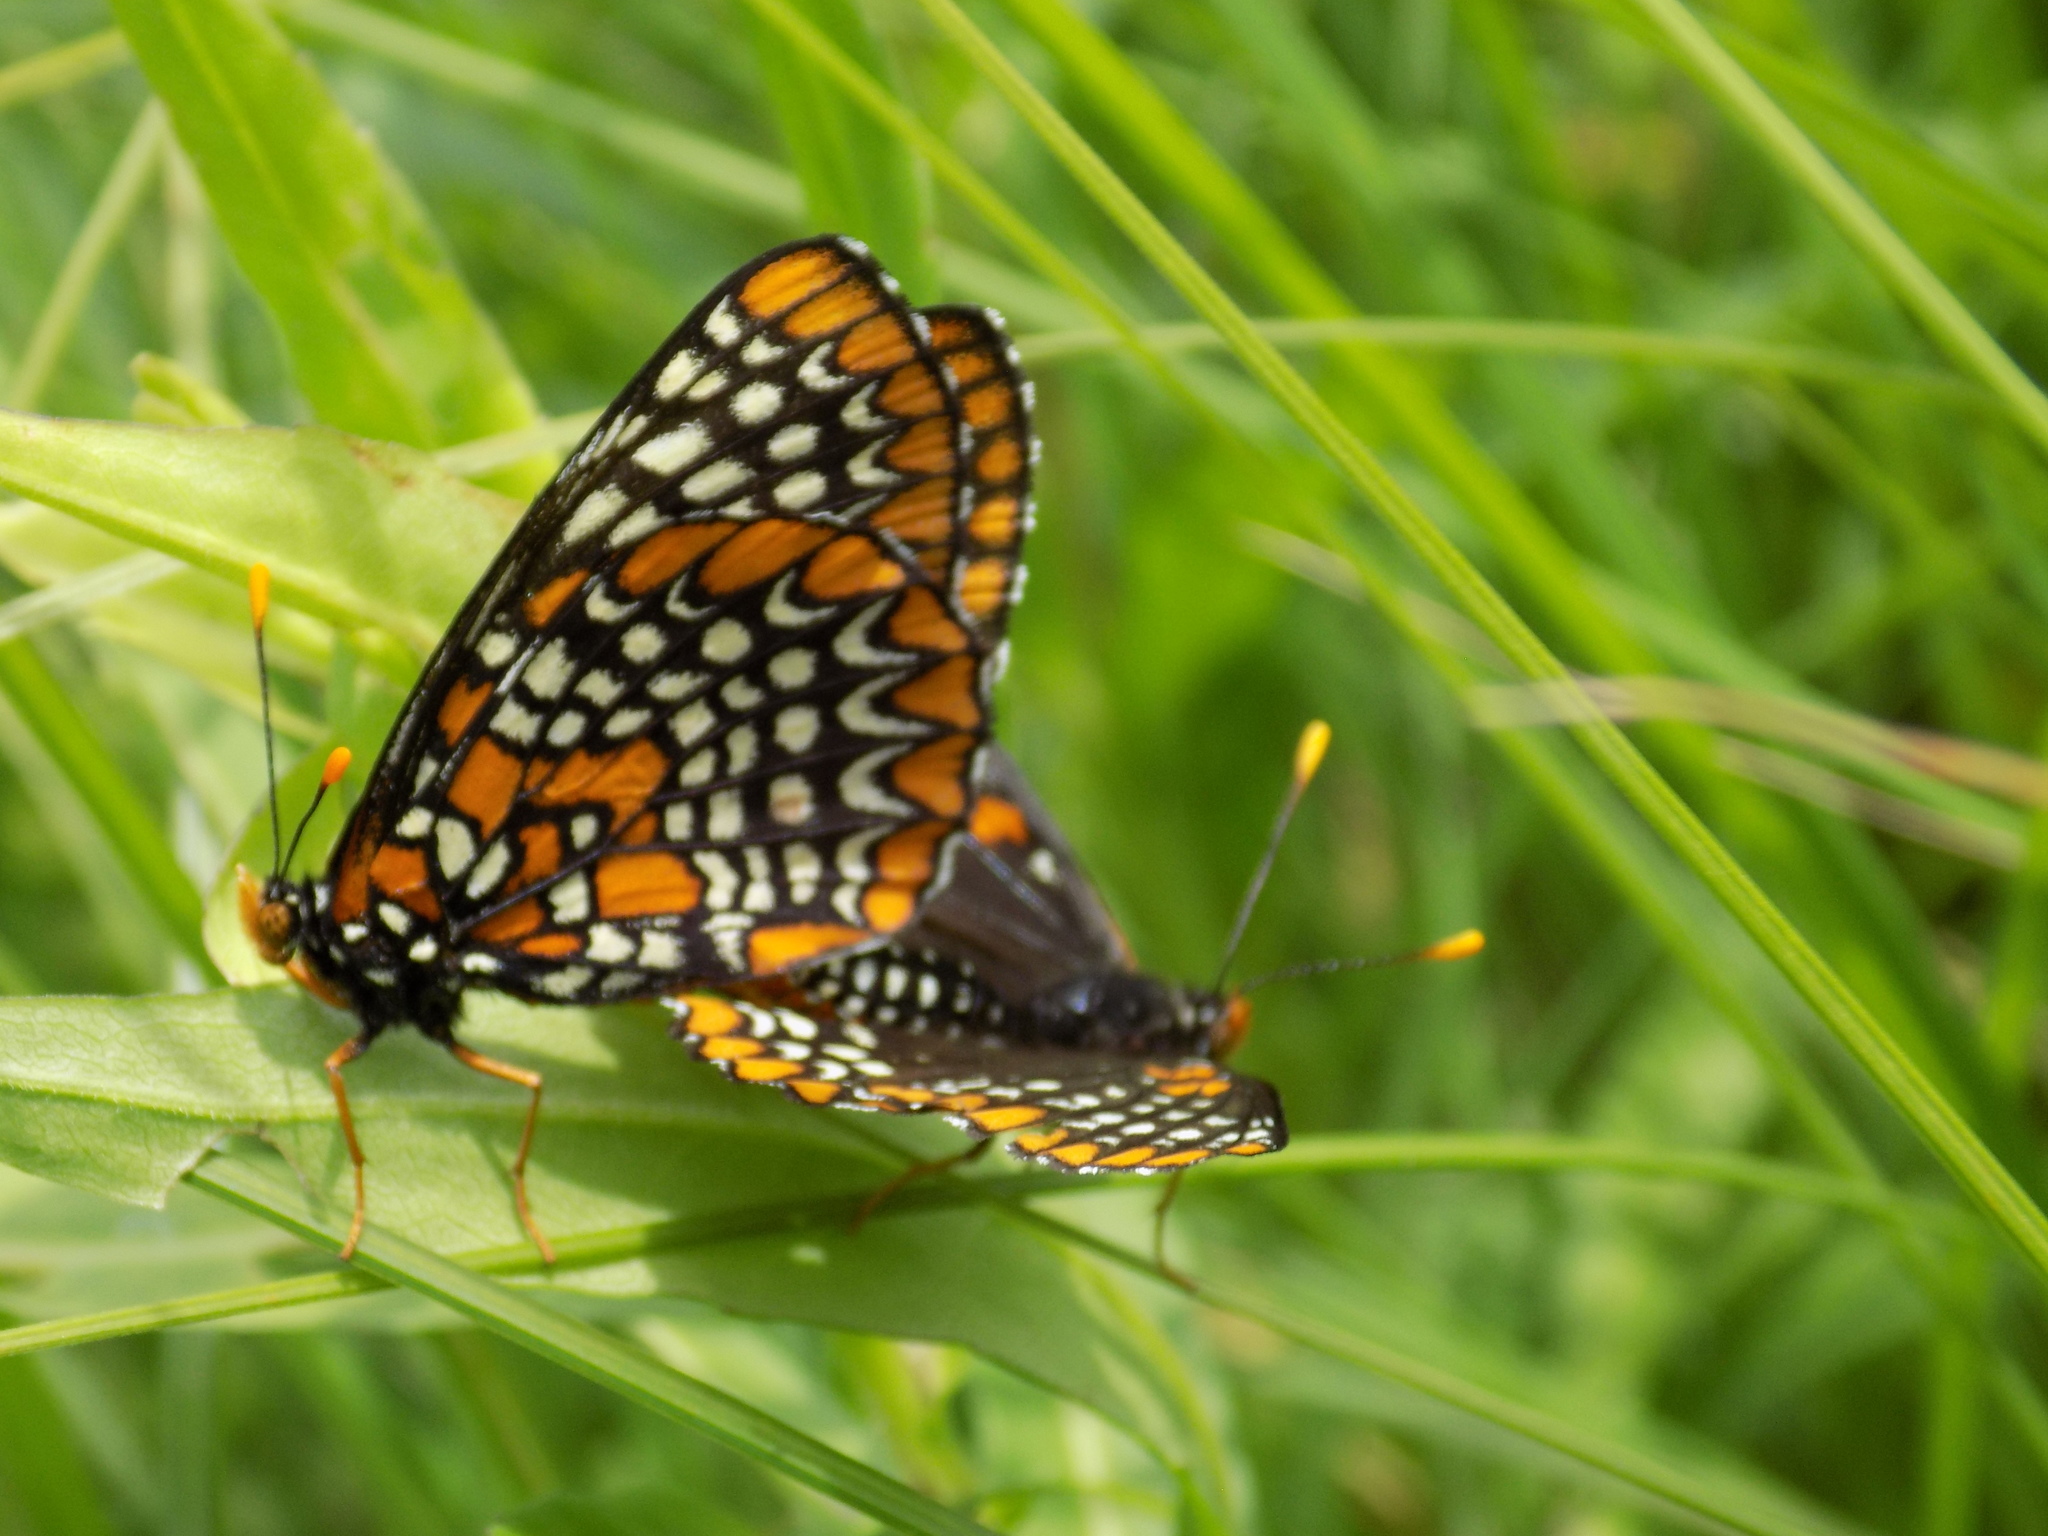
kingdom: Animalia
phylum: Arthropoda
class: Insecta
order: Lepidoptera
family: Nymphalidae
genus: Euphydryas
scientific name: Euphydryas phaeton
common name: Baltimore checkerspot
